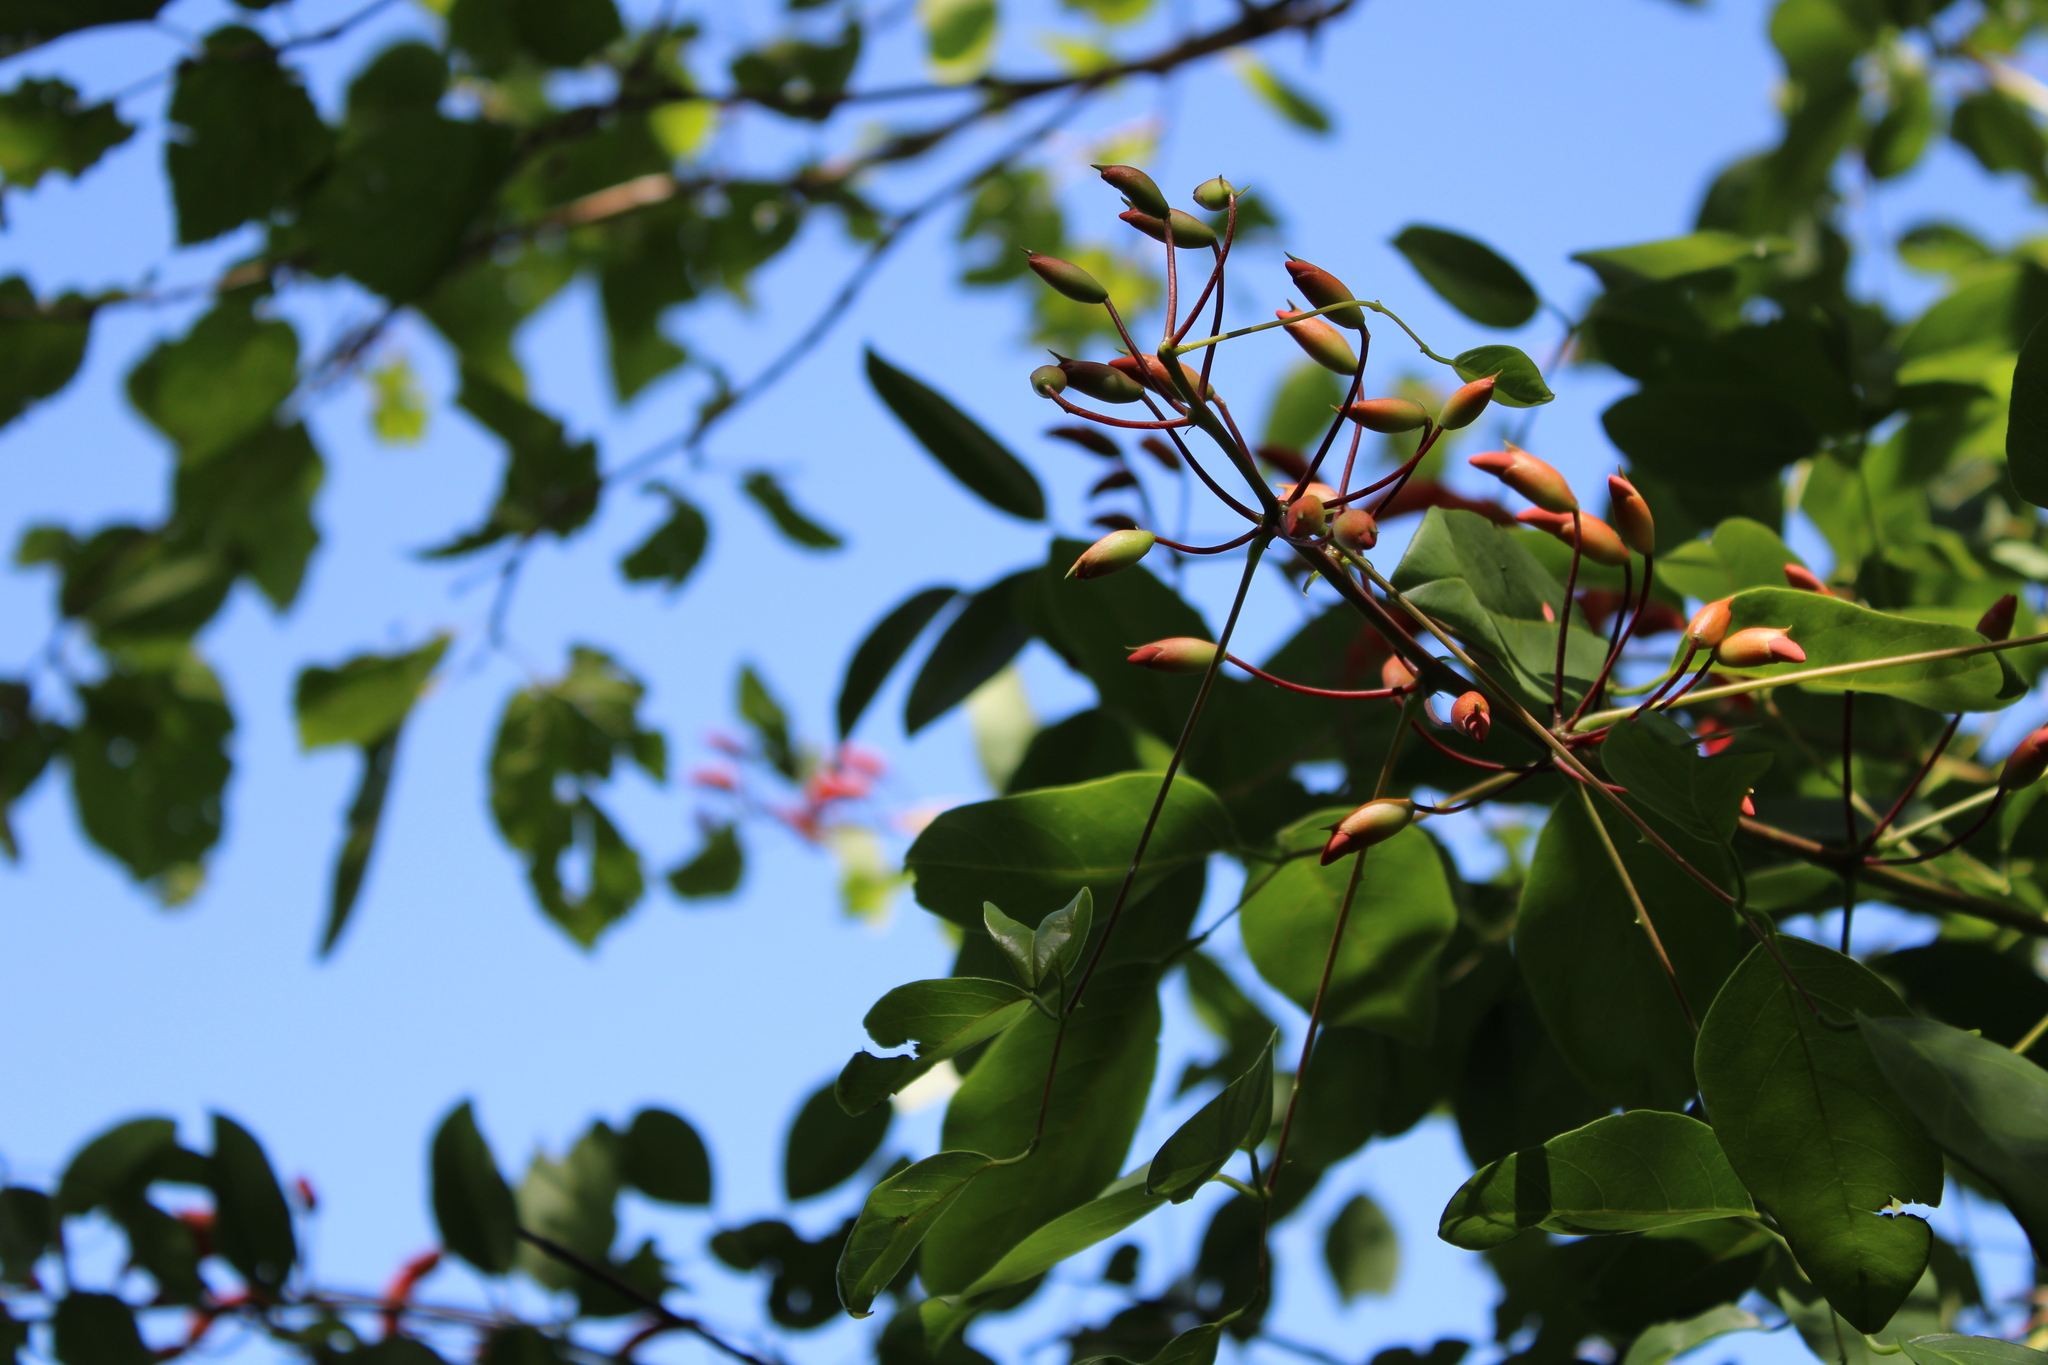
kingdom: Plantae
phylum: Tracheophyta
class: Magnoliopsida
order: Fabales
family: Fabaceae
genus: Erythrina
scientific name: Erythrina crista-galli
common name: Cockspur coral tree
